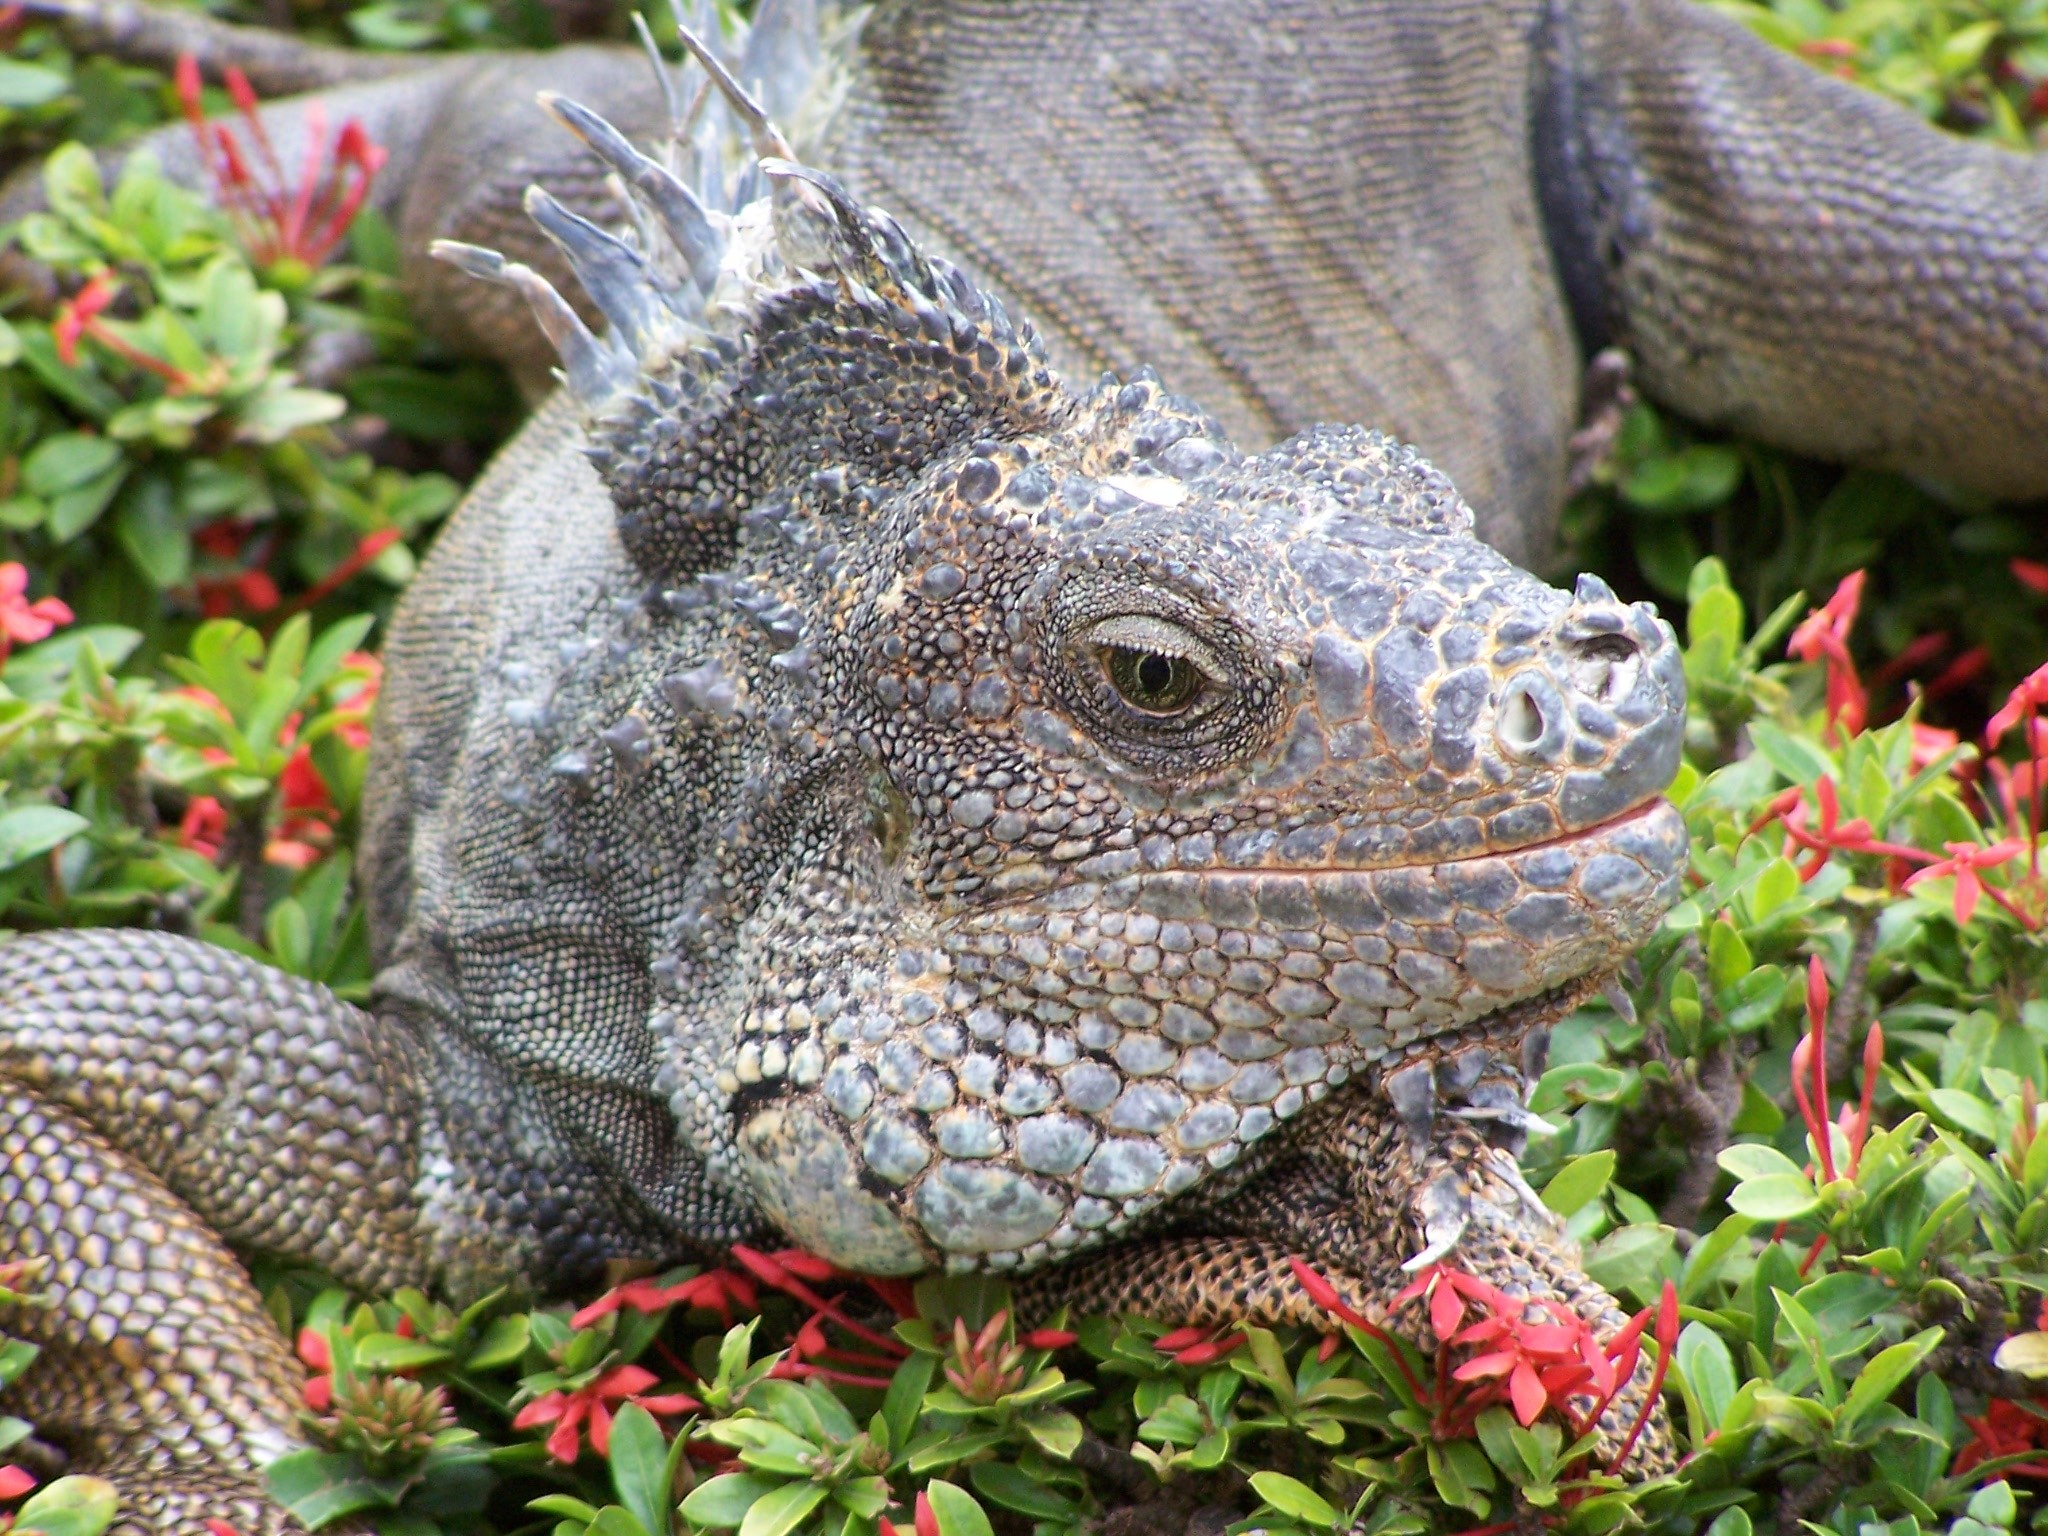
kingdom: Animalia
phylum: Chordata
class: Squamata
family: Iguanidae
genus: Iguana
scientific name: Iguana iguana
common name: Green iguana
